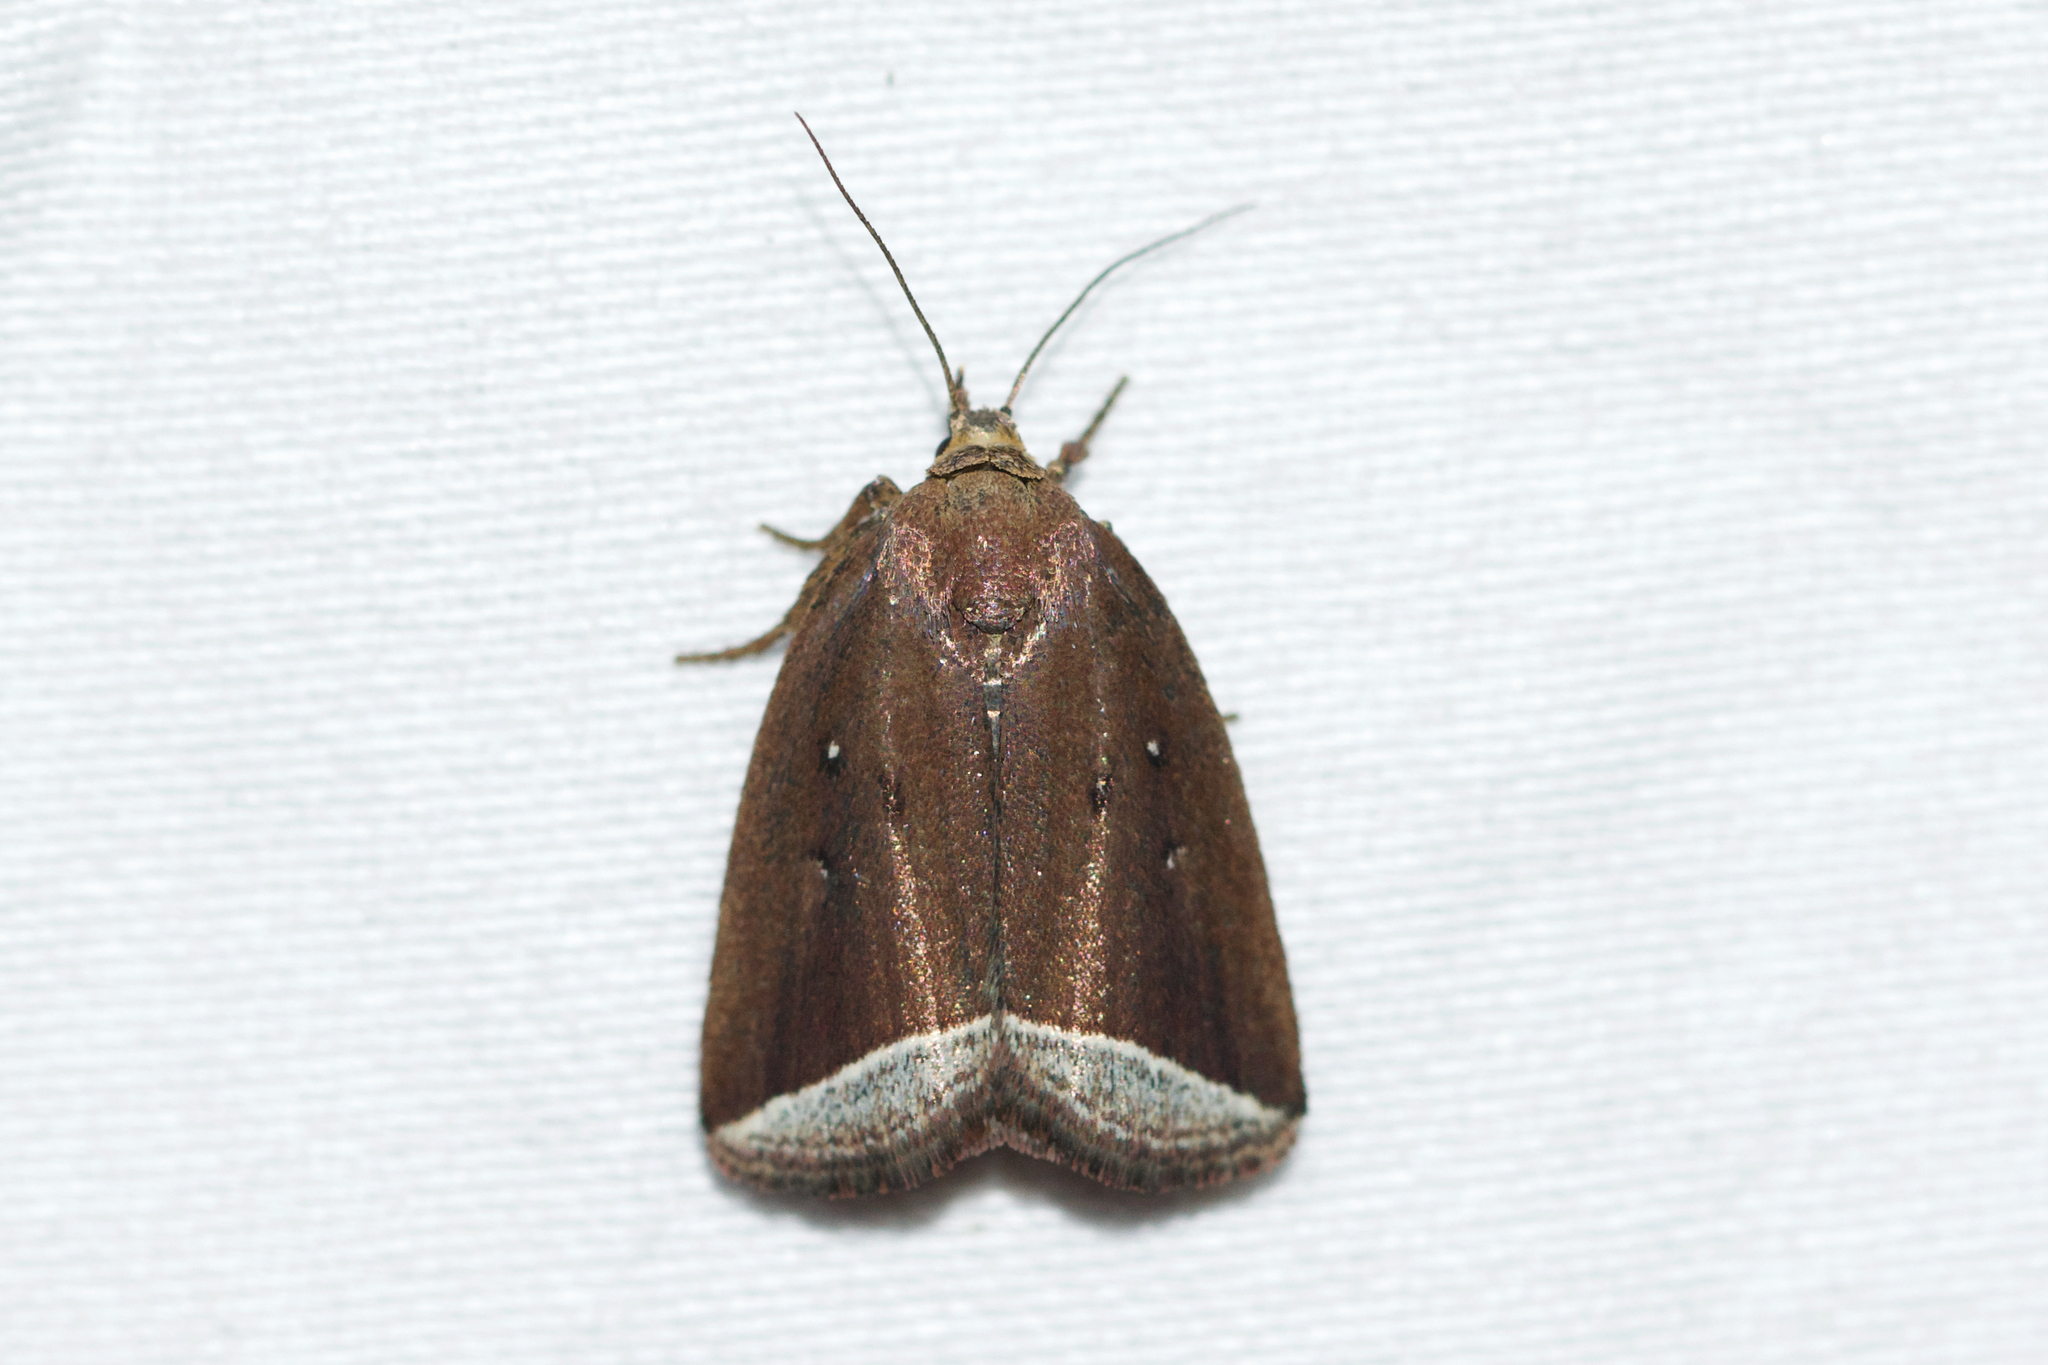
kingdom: Animalia
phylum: Arthropoda
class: Insecta
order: Lepidoptera
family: Erebidae
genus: Capis
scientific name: Capis curvata
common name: Curved halter moth
